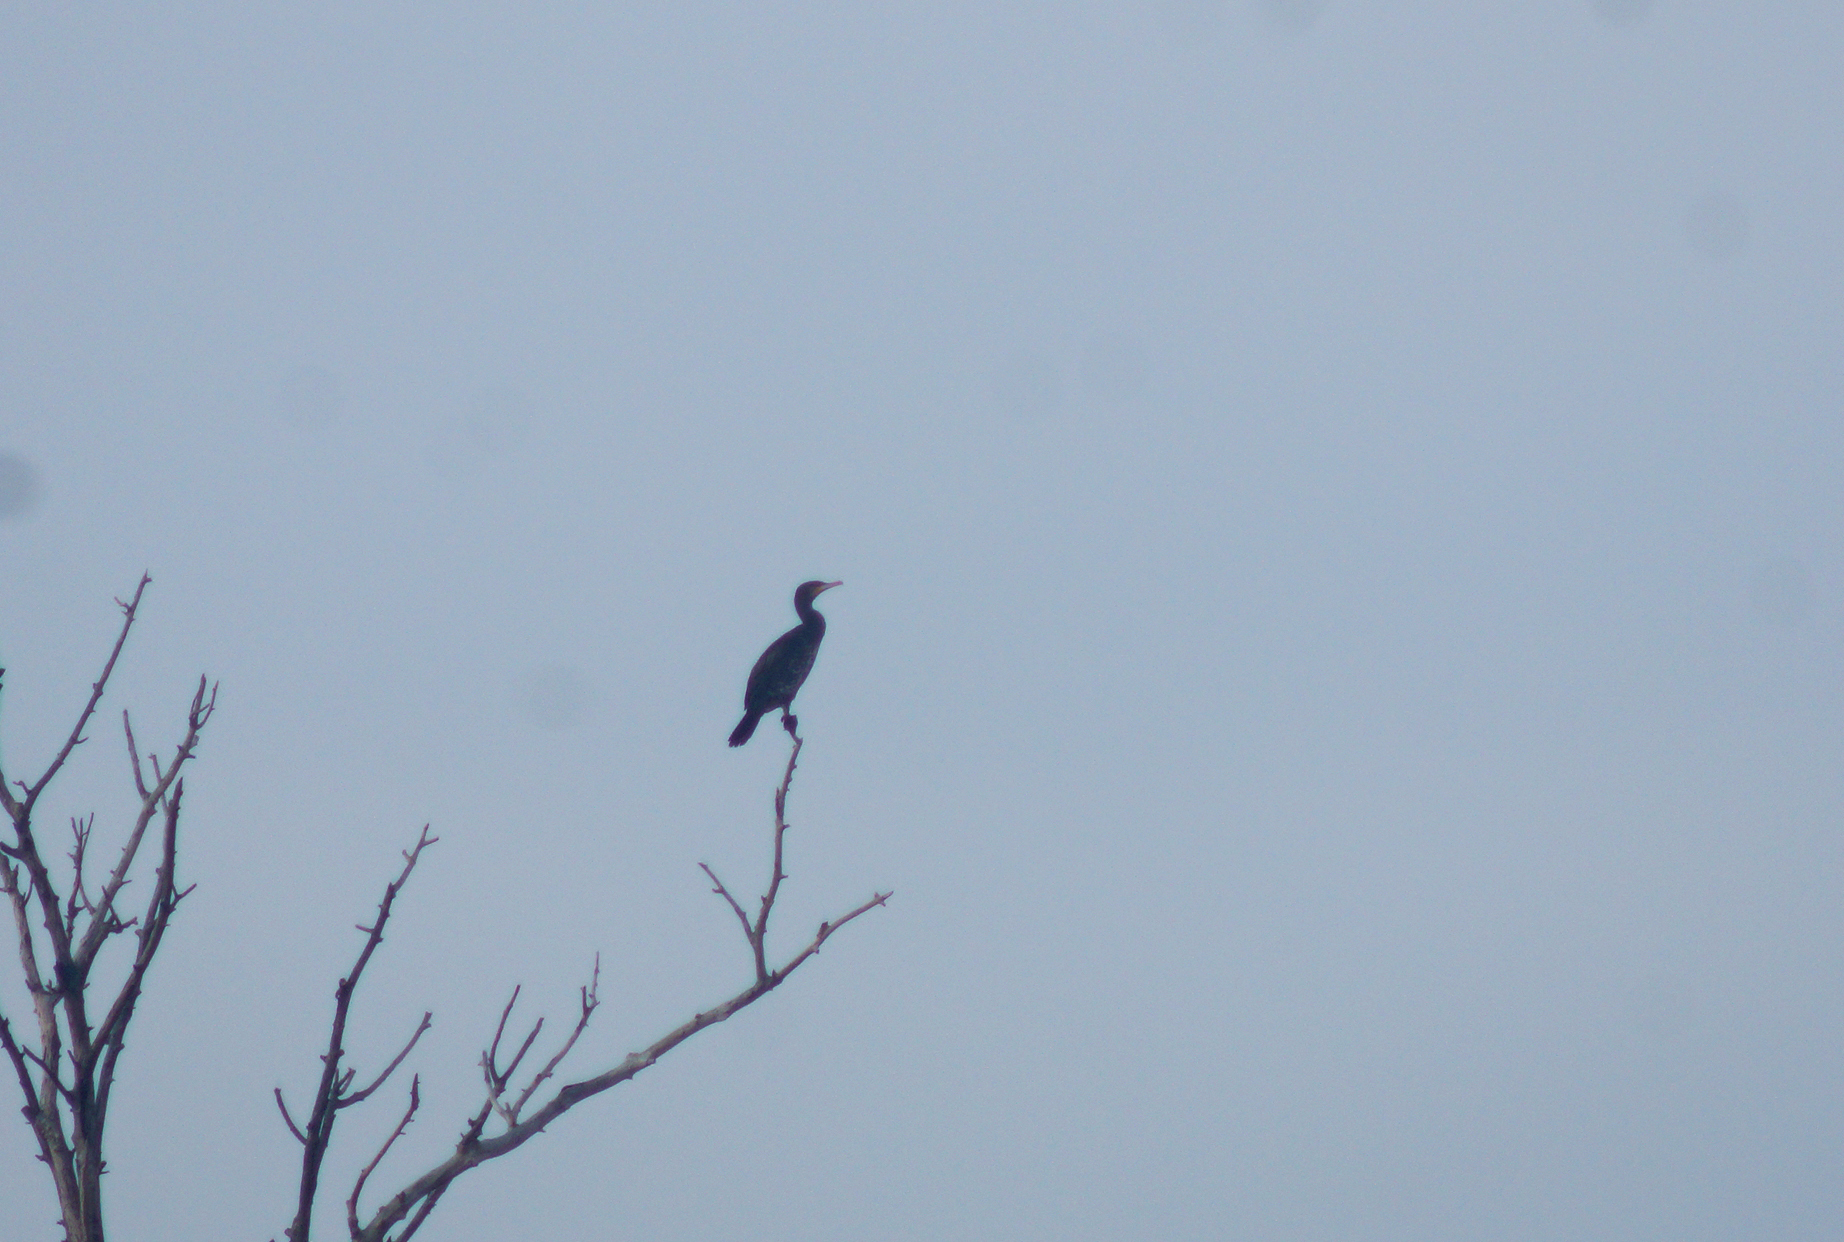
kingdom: Animalia
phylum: Chordata
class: Aves
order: Suliformes
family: Phalacrocoracidae
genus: Phalacrocorax
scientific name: Phalacrocorax carbo
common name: Great cormorant
